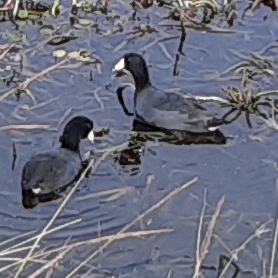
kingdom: Animalia
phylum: Chordata
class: Aves
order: Gruiformes
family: Rallidae
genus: Fulica
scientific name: Fulica americana
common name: American coot
